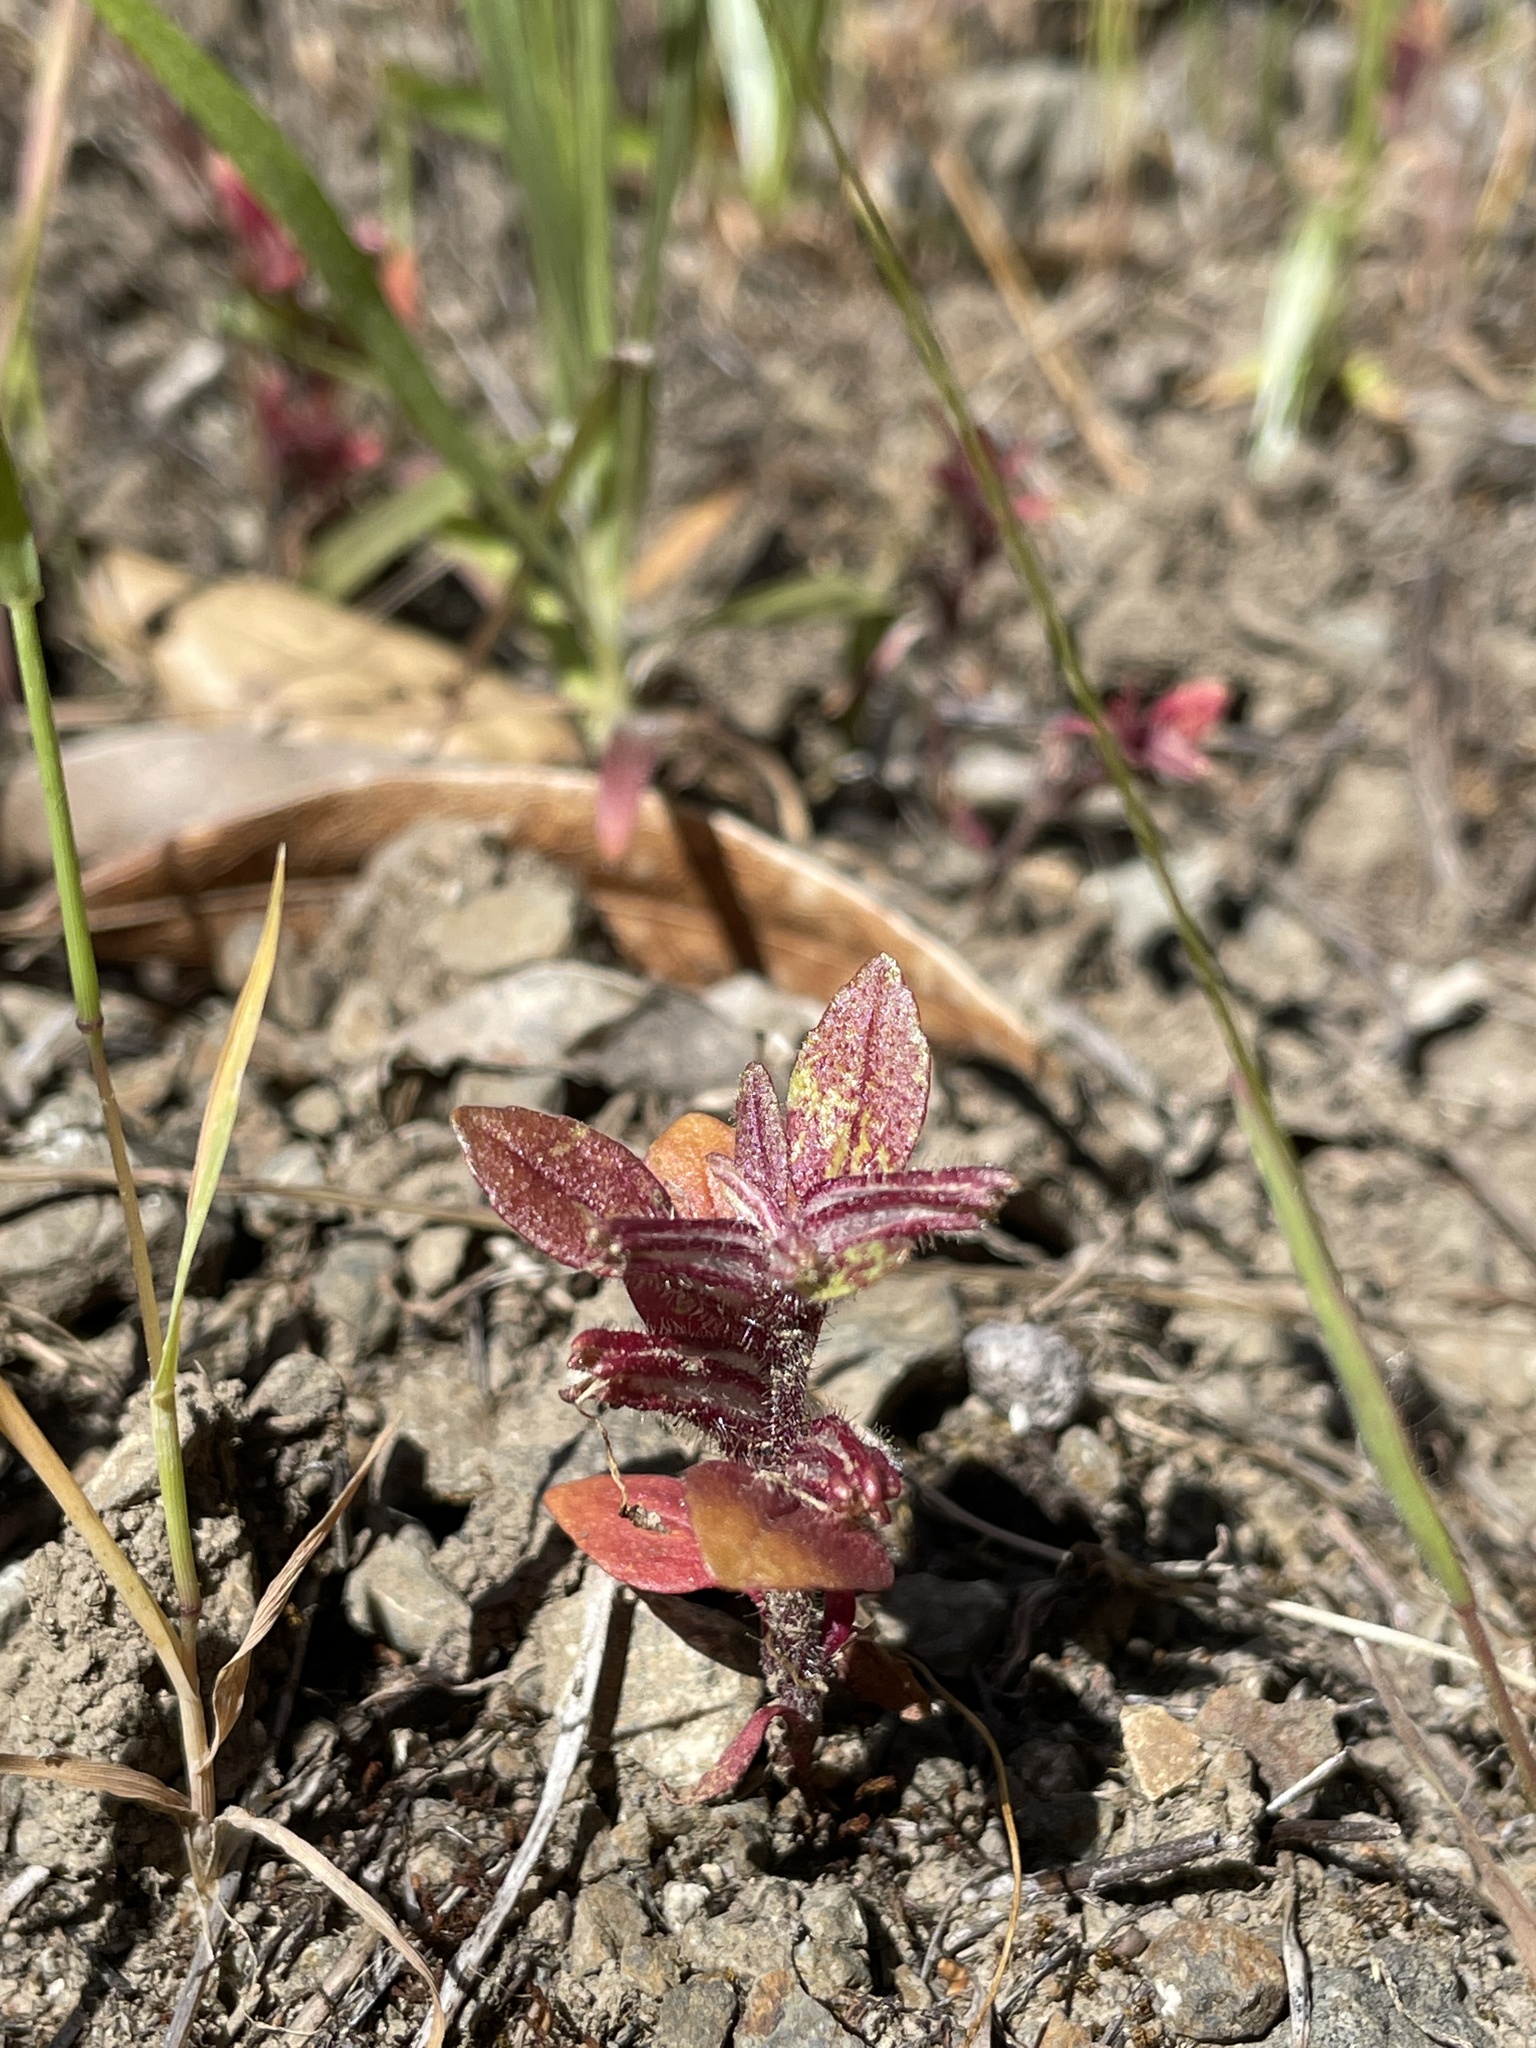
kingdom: Plantae
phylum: Tracheophyta
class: Magnoliopsida
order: Lamiales
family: Phrymaceae
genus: Diplacus
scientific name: Diplacus congdonii
